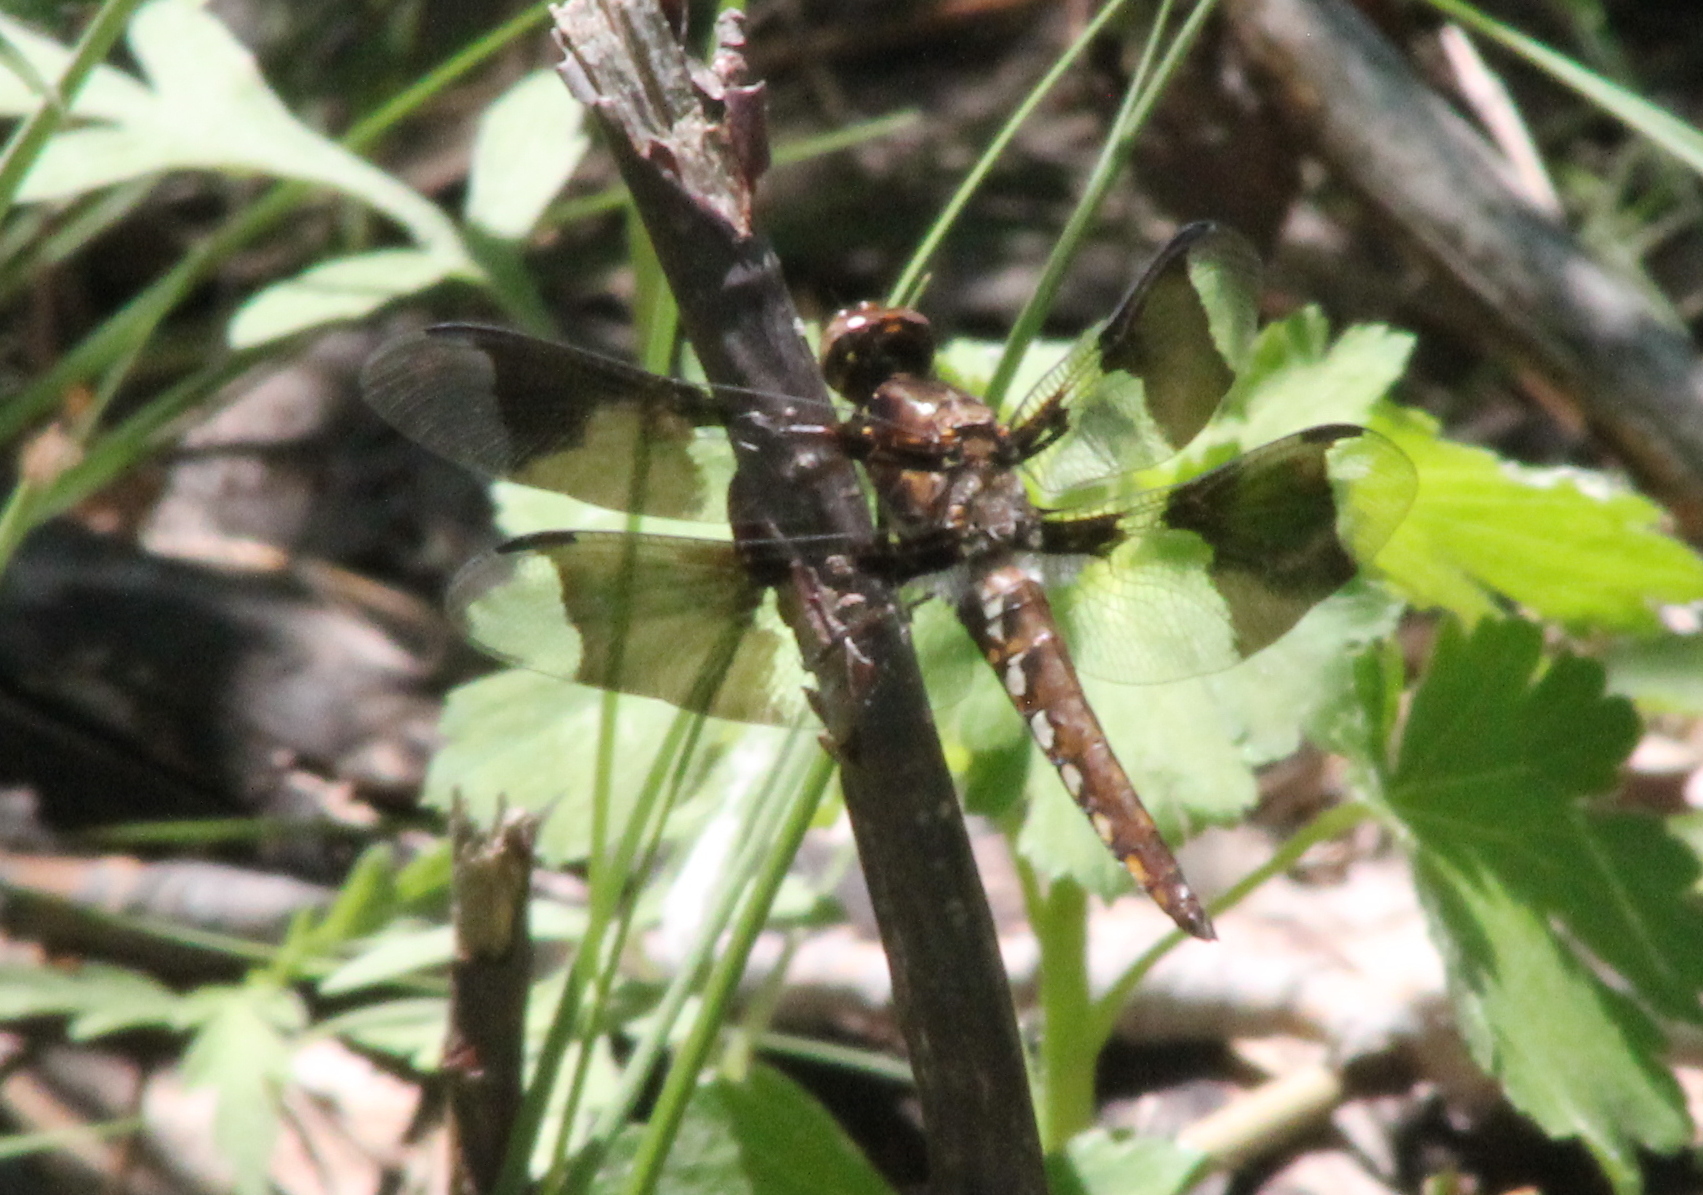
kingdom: Animalia
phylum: Arthropoda
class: Insecta
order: Odonata
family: Libellulidae
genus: Plathemis
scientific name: Plathemis lydia
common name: Common whitetail
